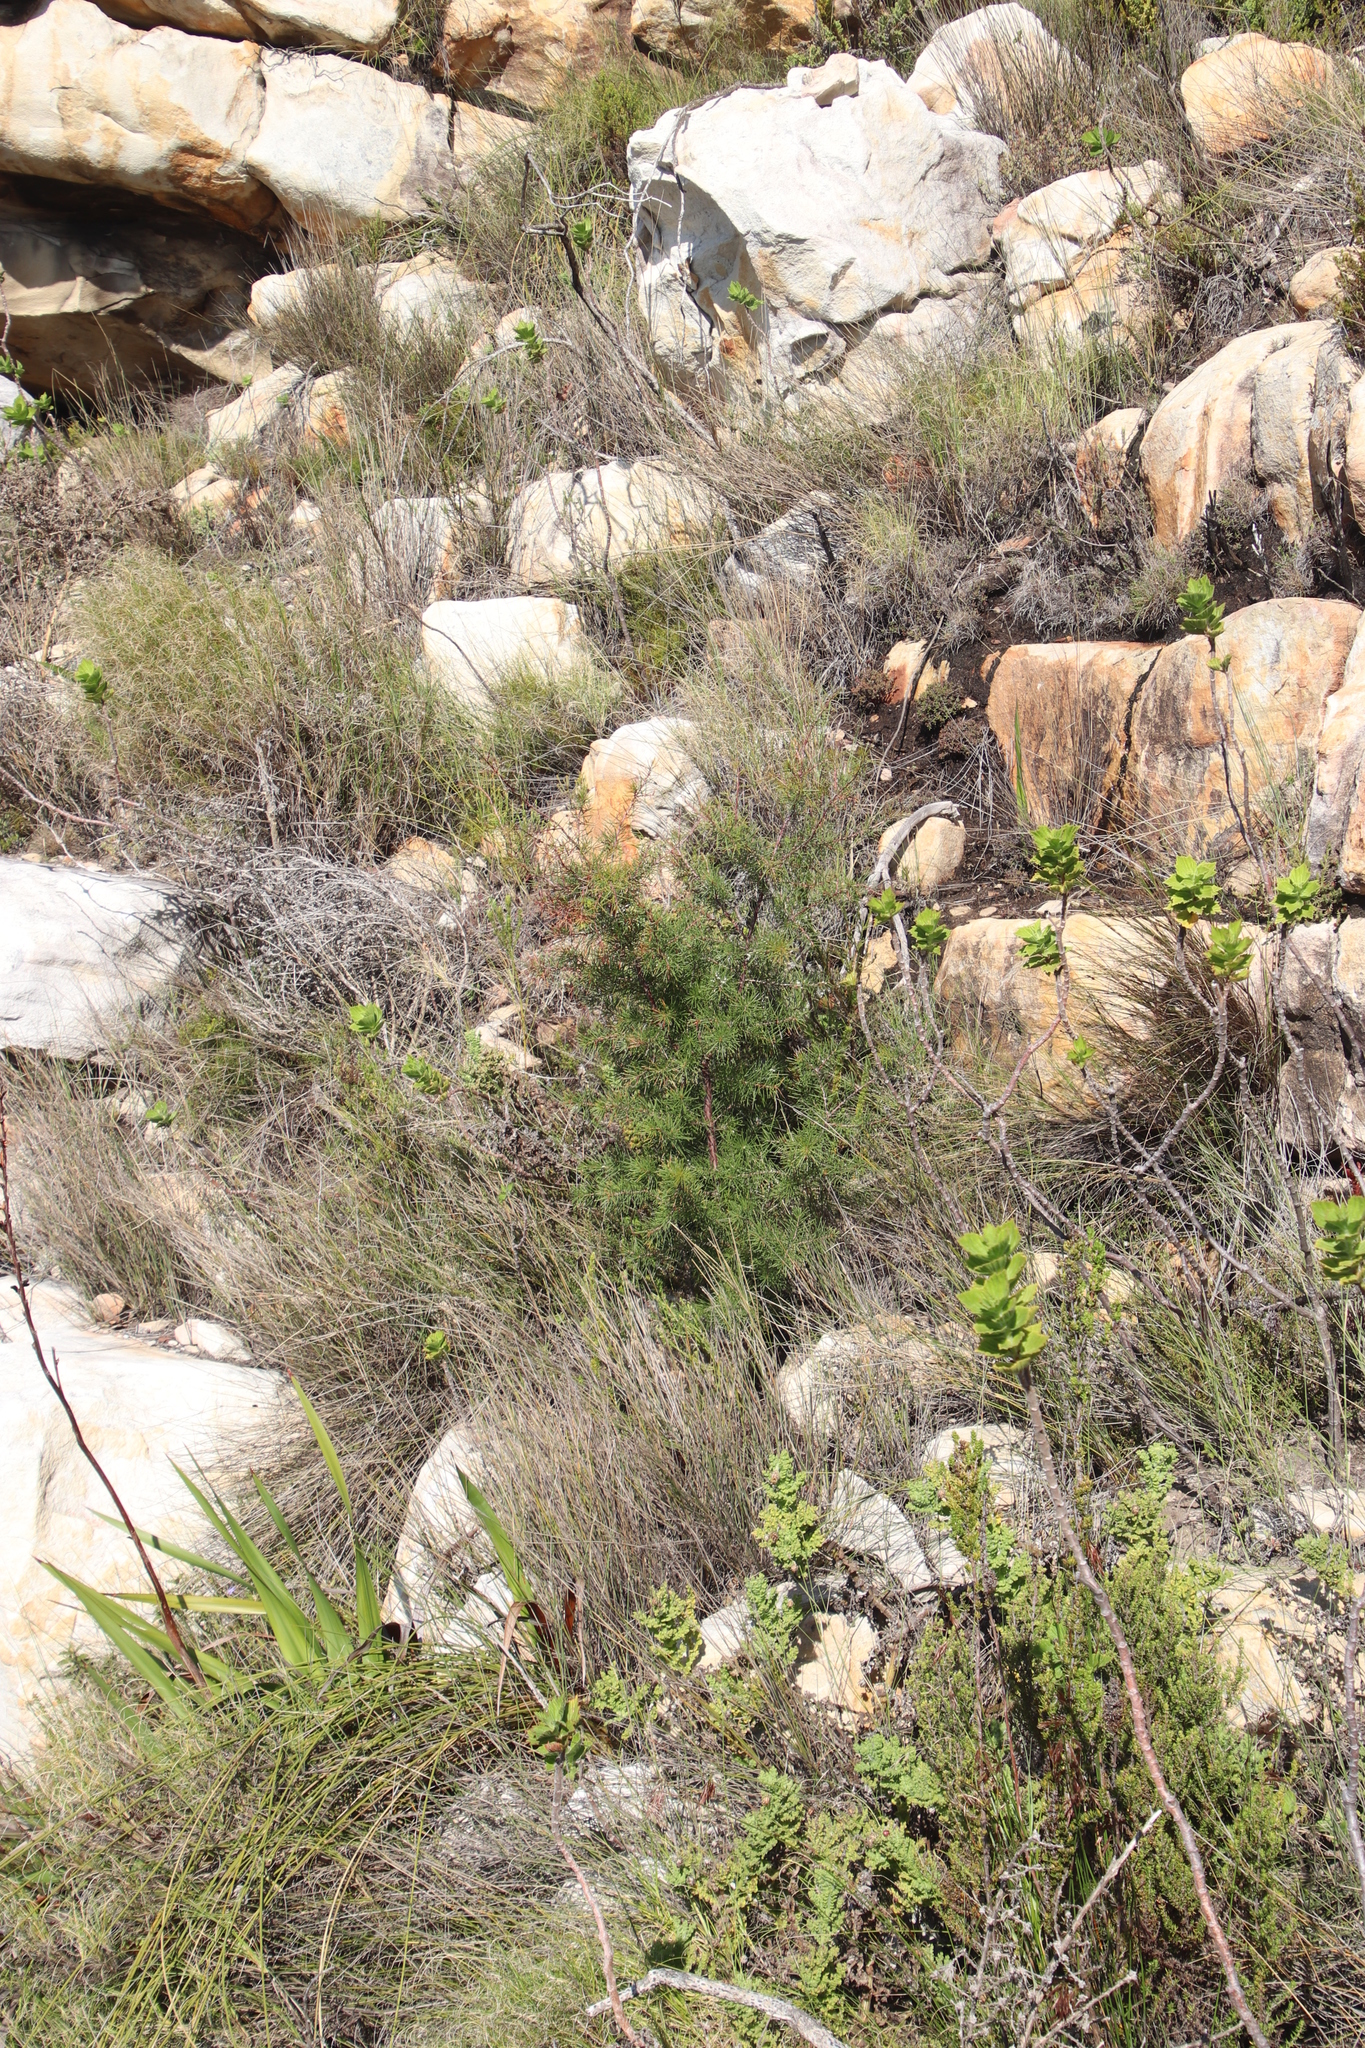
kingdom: Plantae
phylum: Tracheophyta
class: Magnoliopsida
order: Proteales
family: Proteaceae
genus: Hakea
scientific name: Hakea sericea
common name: Needle bush
